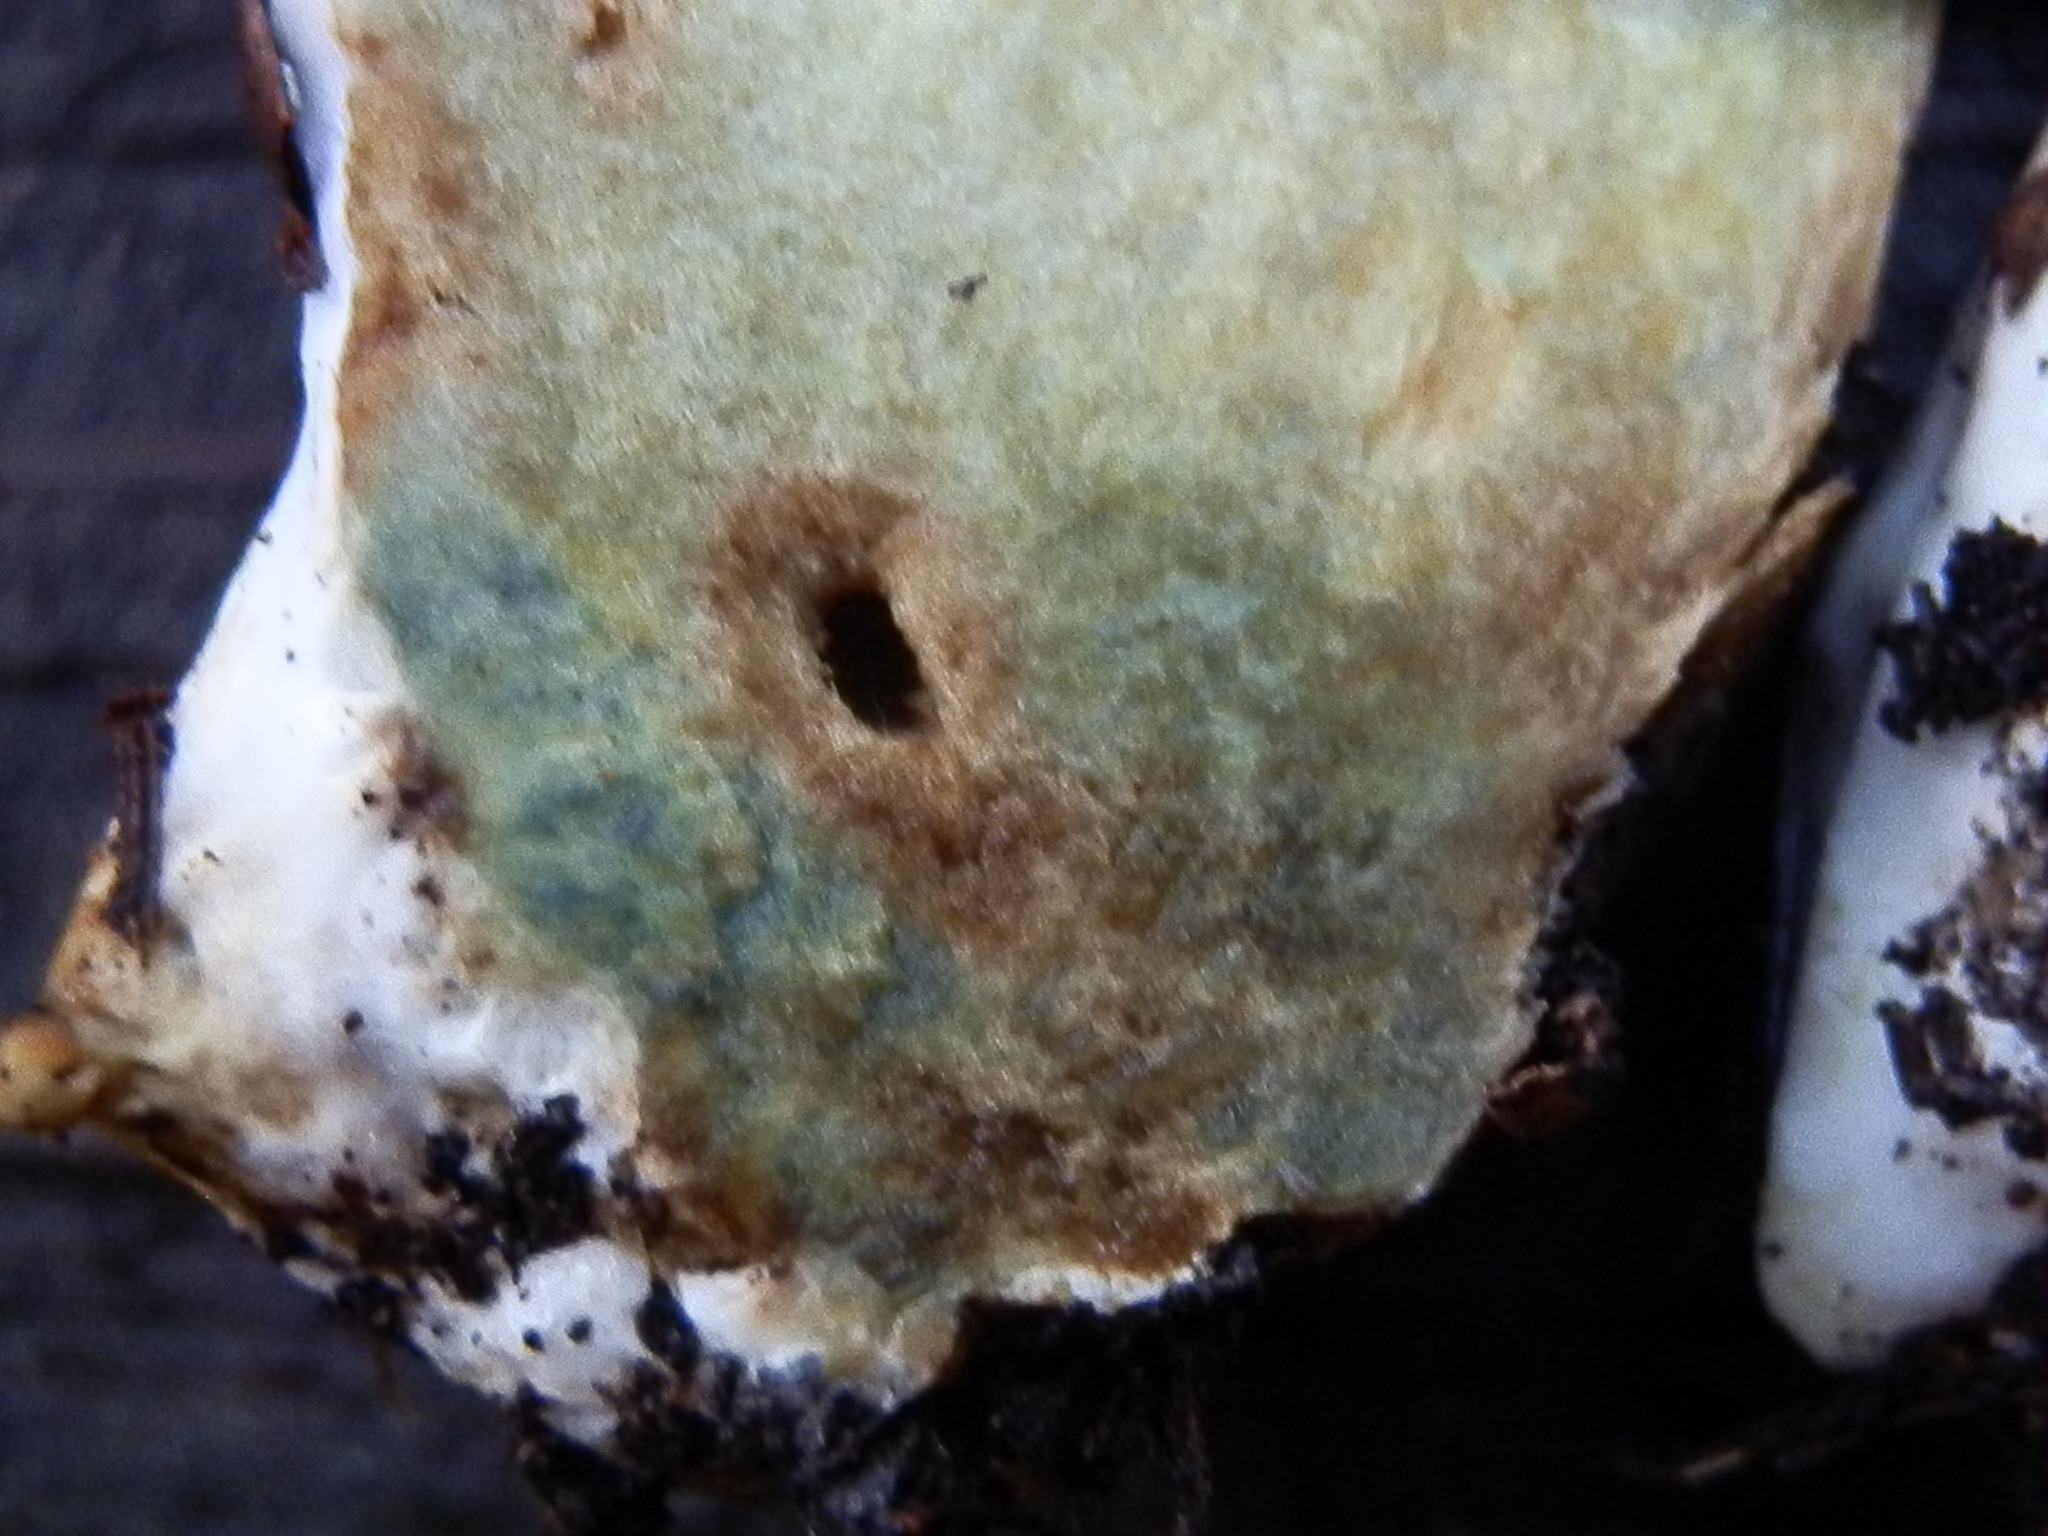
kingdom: Fungi
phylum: Basidiomycota
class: Agaricomycetes
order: Boletales
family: Suillaceae
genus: Suillus
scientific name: Suillus caerulescens
